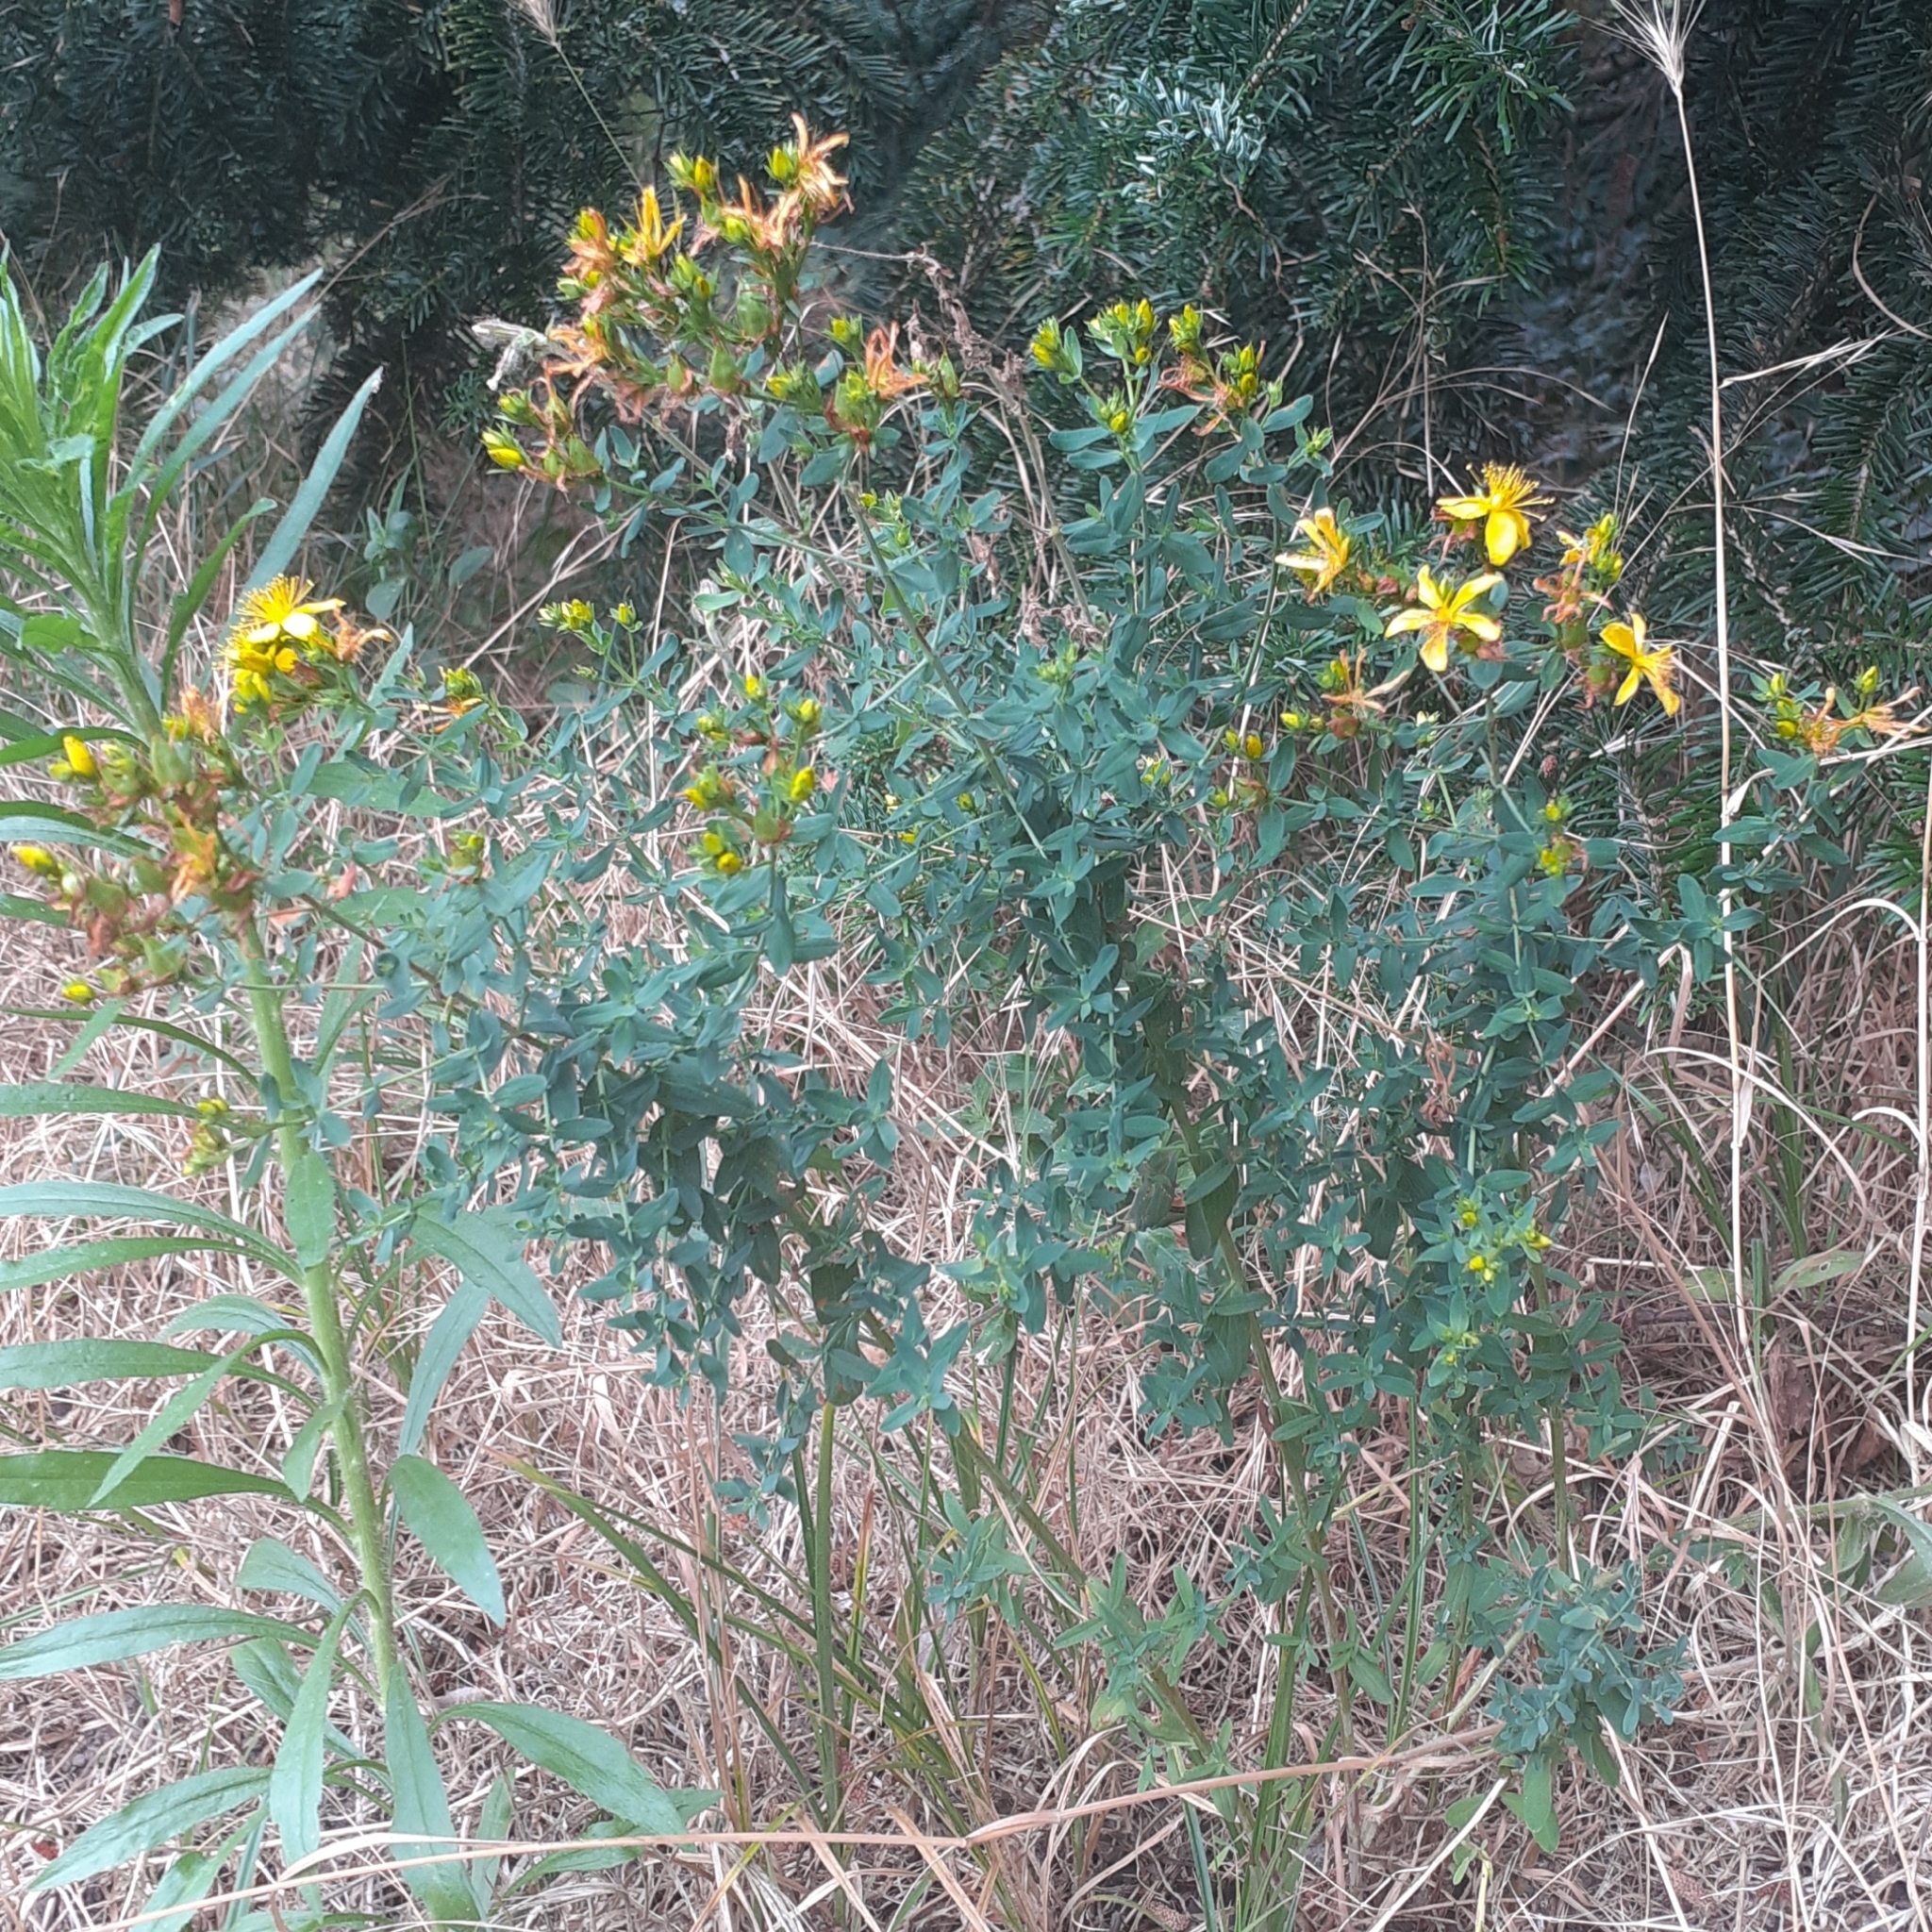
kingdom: Plantae
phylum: Tracheophyta
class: Magnoliopsida
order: Malpighiales
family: Hypericaceae
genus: Hypericum
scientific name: Hypericum perforatum
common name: Common st. johnswort
